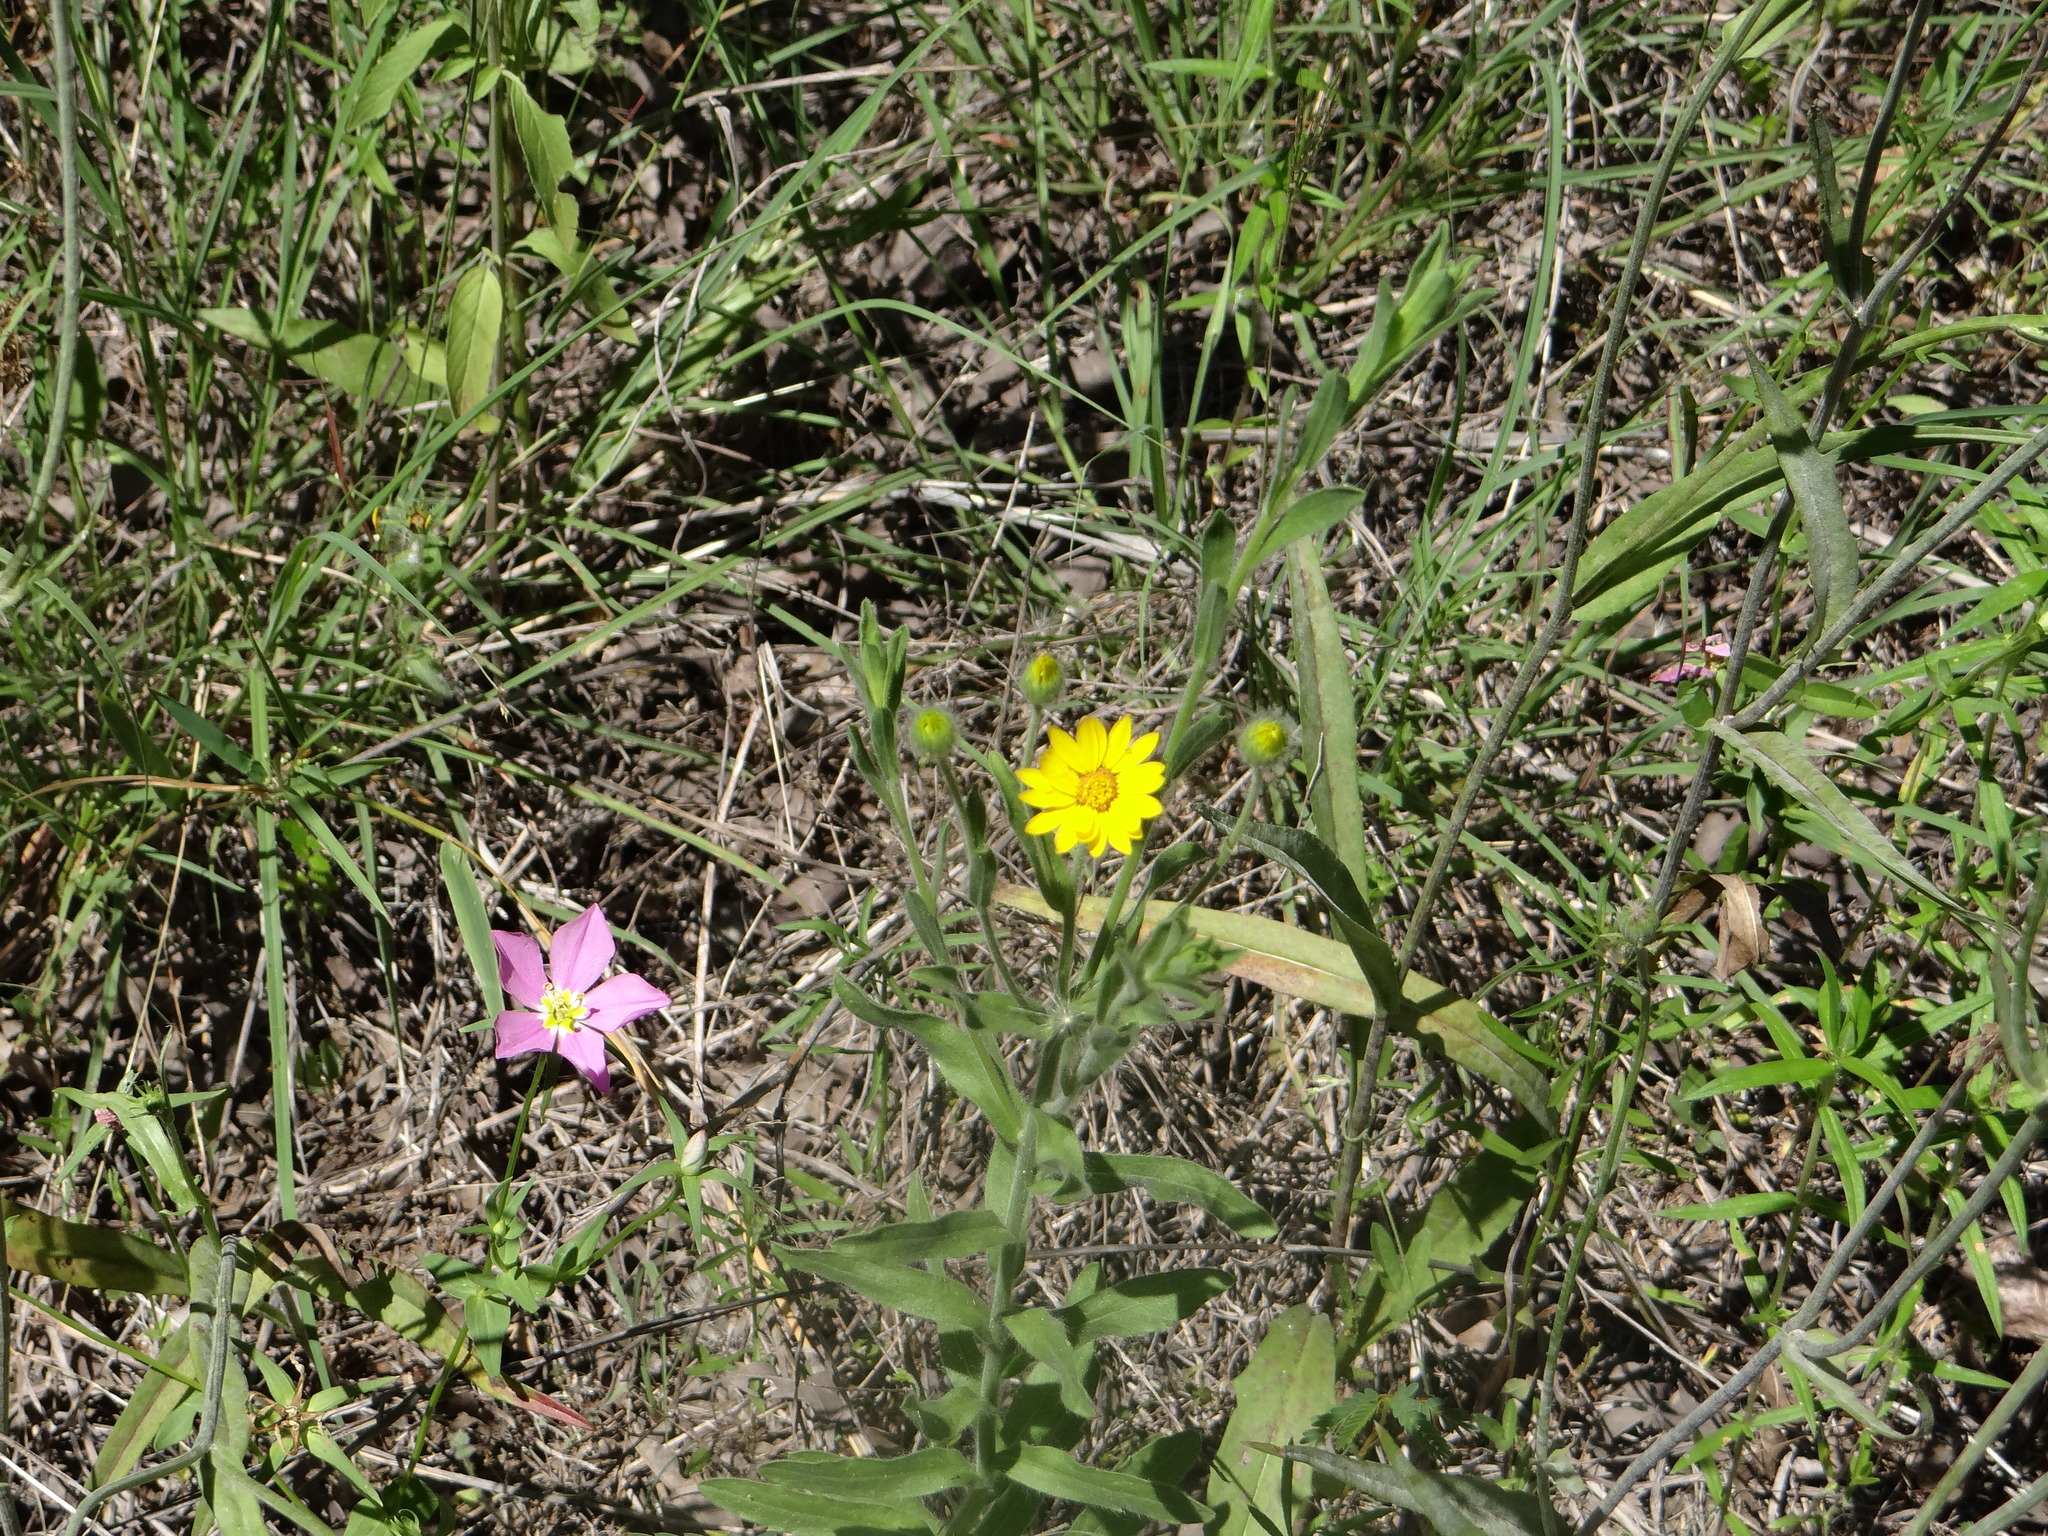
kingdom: Plantae
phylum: Tracheophyta
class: Magnoliopsida
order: Asterales
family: Asteraceae
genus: Bradburia
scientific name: Bradburia pilosa
